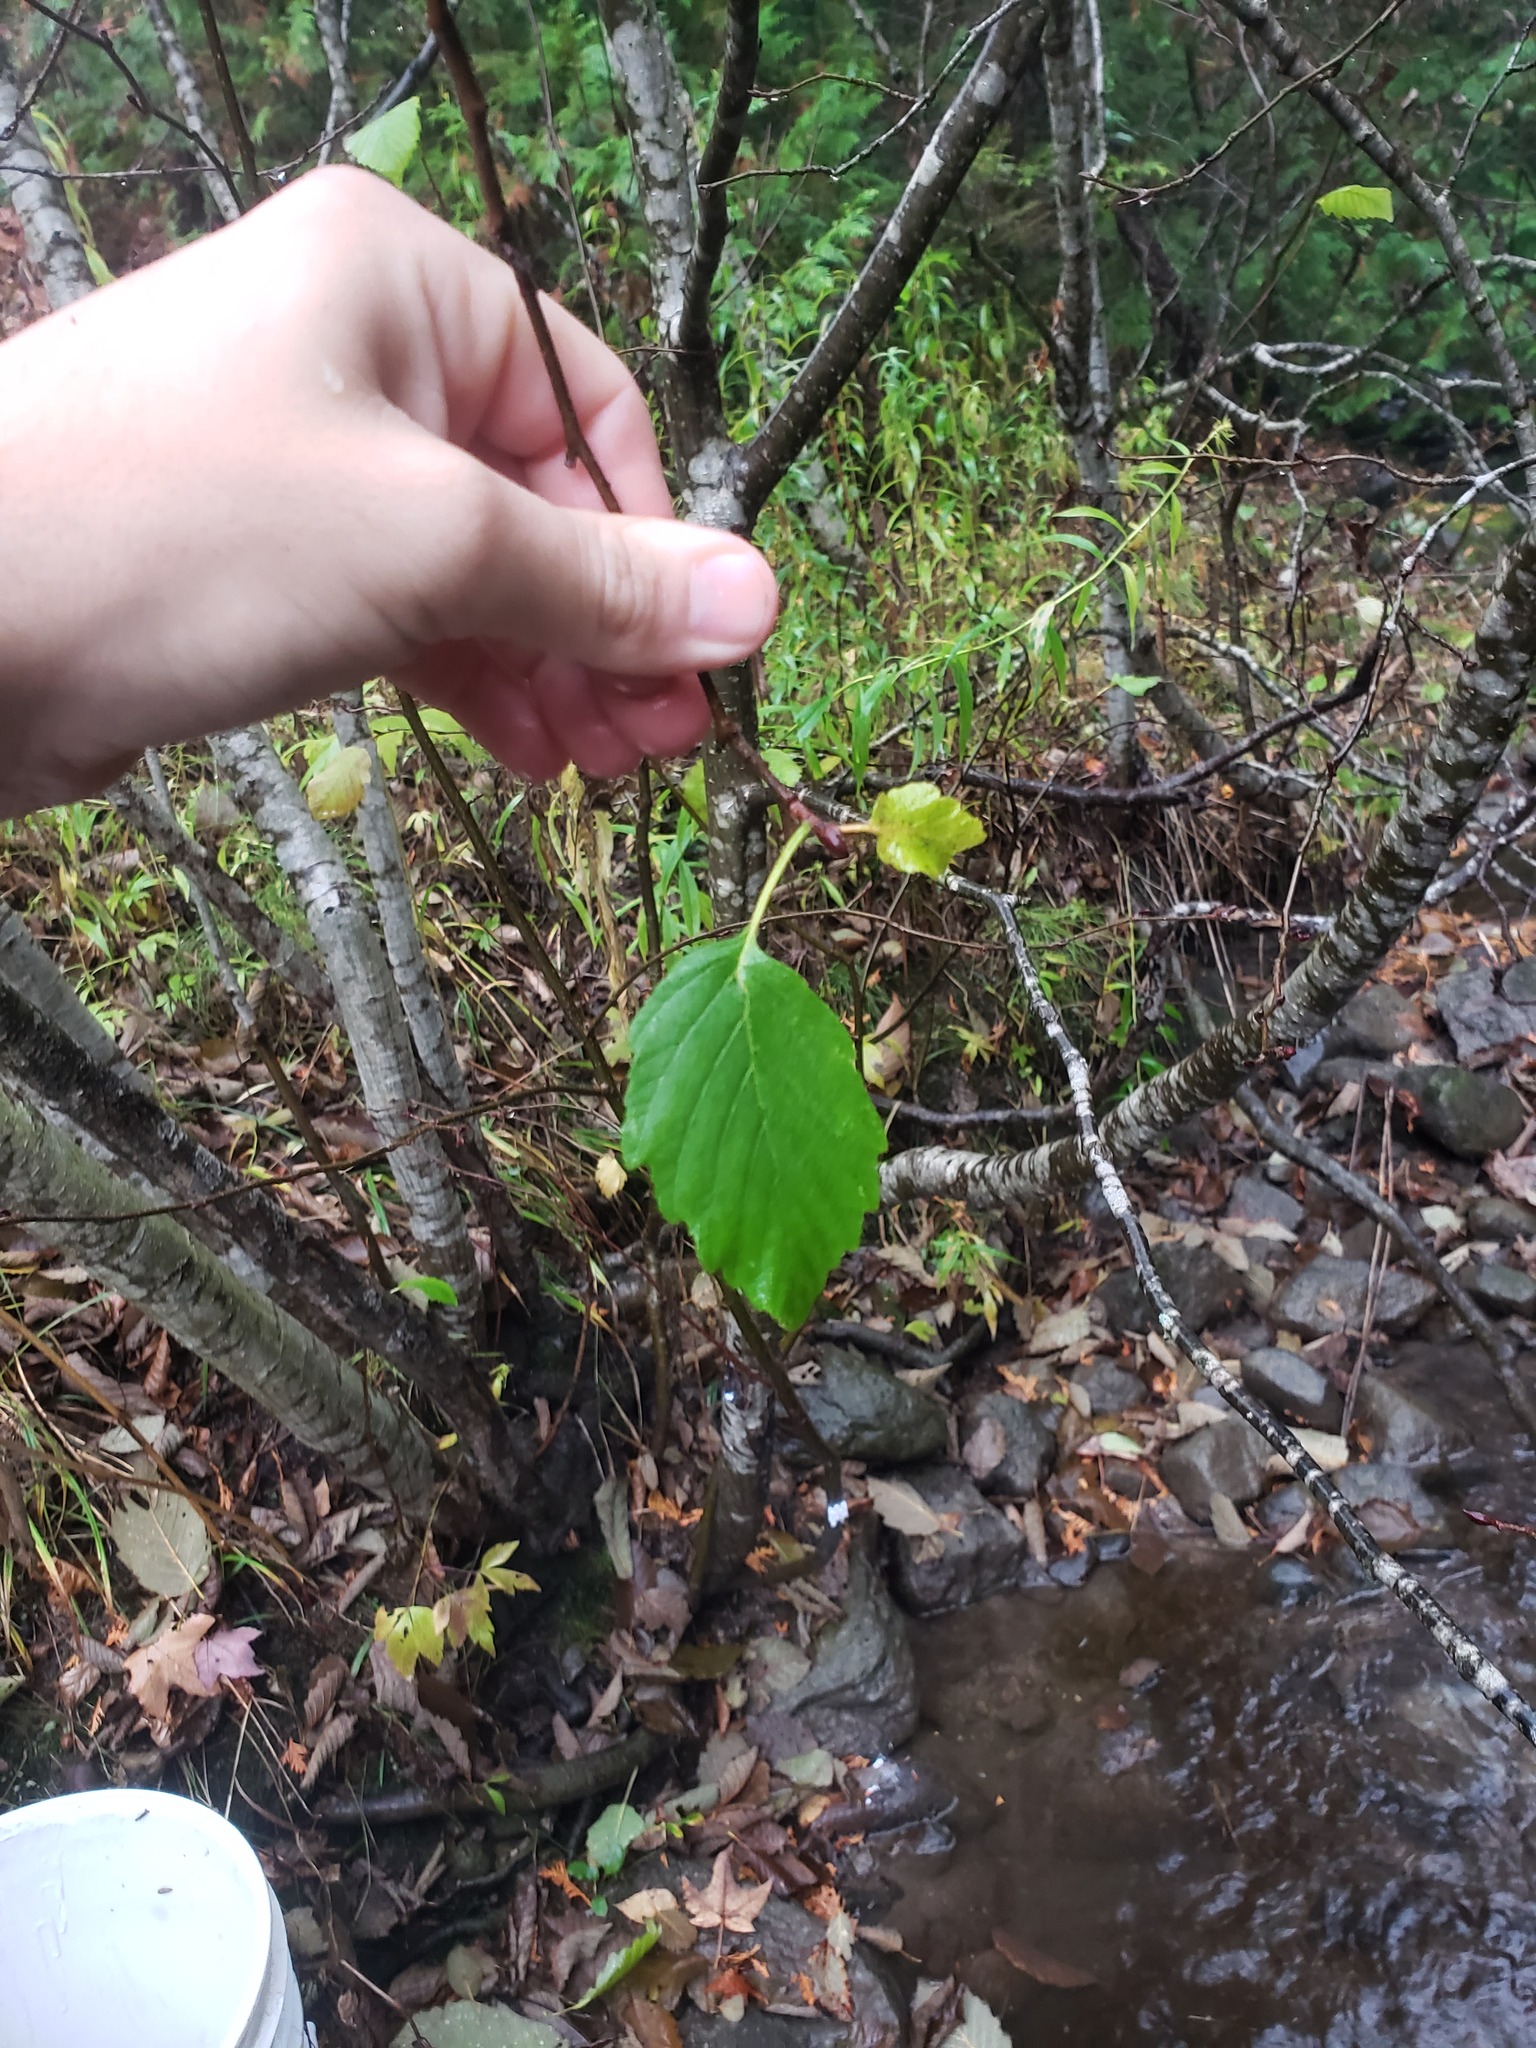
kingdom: Animalia
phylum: Arthropoda
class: Insecta
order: Hemiptera
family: Aphididae
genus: Prociphilus
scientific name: Prociphilus tessellatus
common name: Woolly alder aphid
